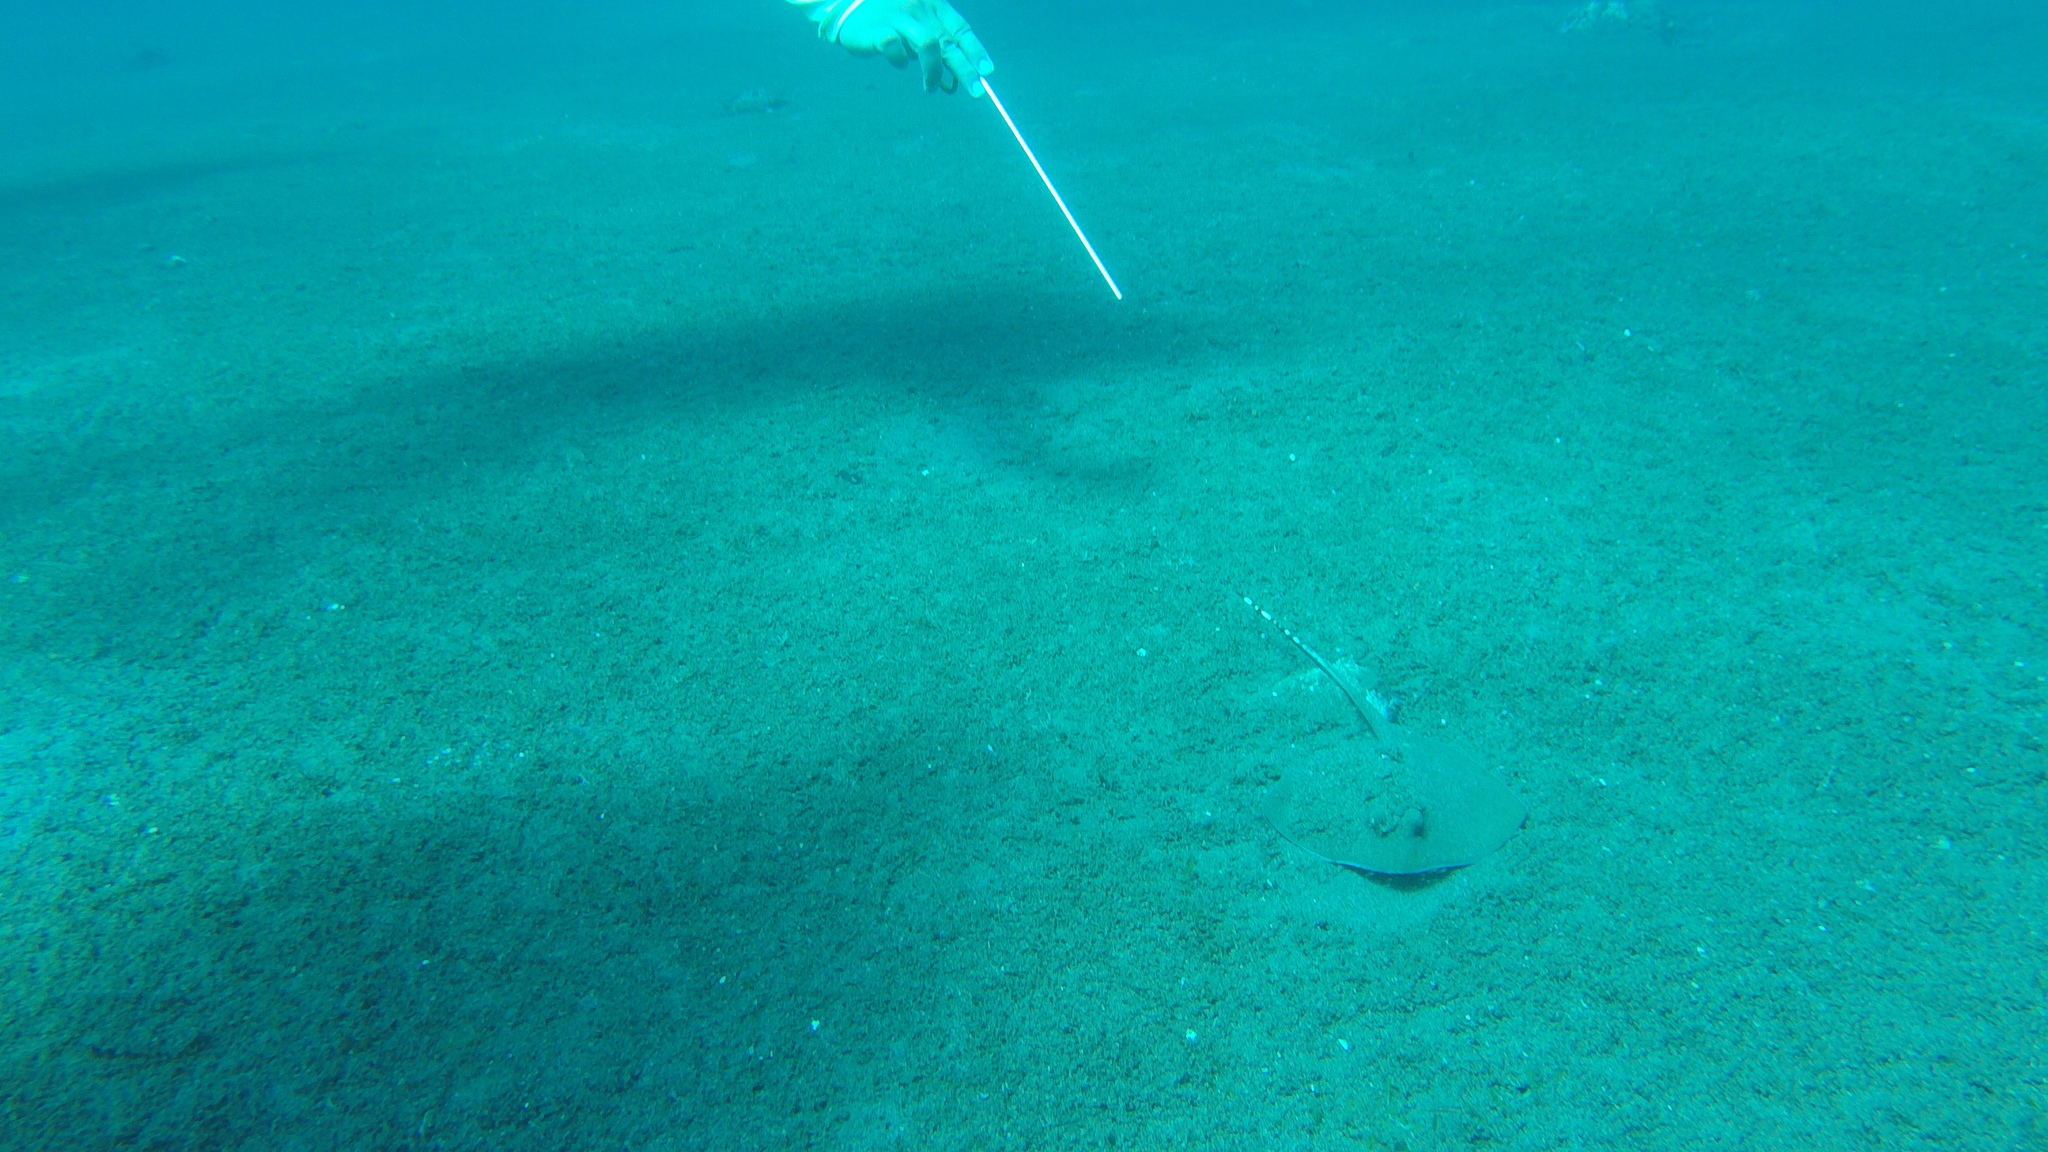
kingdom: Animalia
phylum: Chordata
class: Elasmobranchii
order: Myliobatiformes
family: Dasyatidae
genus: Neotrygon
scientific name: Neotrygon orientale
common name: Oriental bluespotted maskray
